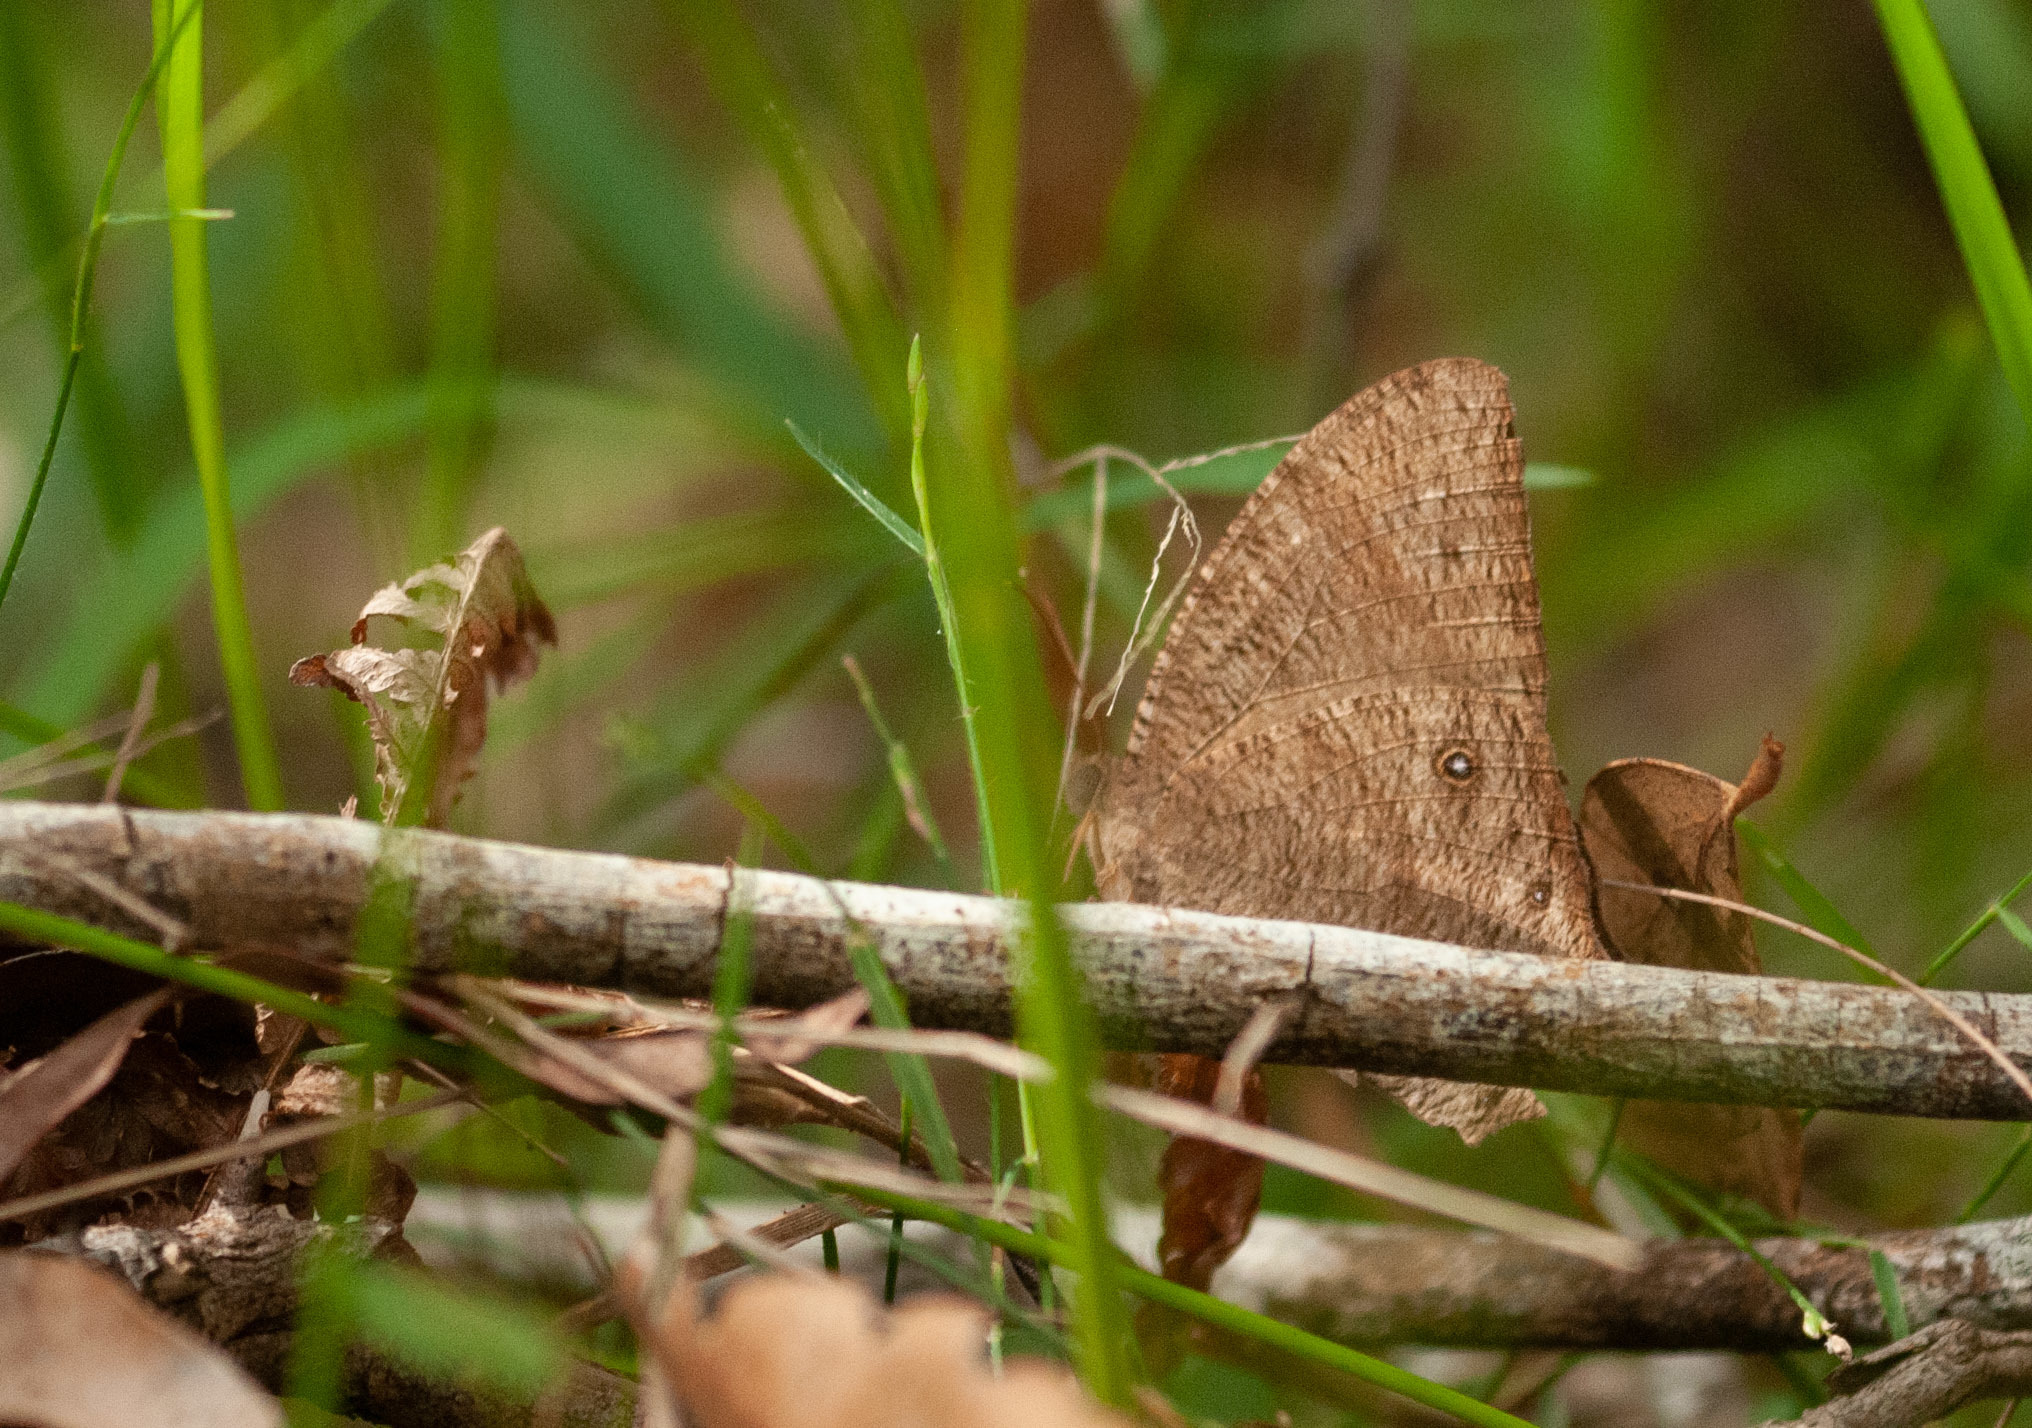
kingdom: Animalia
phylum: Arthropoda
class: Insecta
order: Lepidoptera
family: Nymphalidae
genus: Melanitis
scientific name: Melanitis leda
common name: Twilight brown
